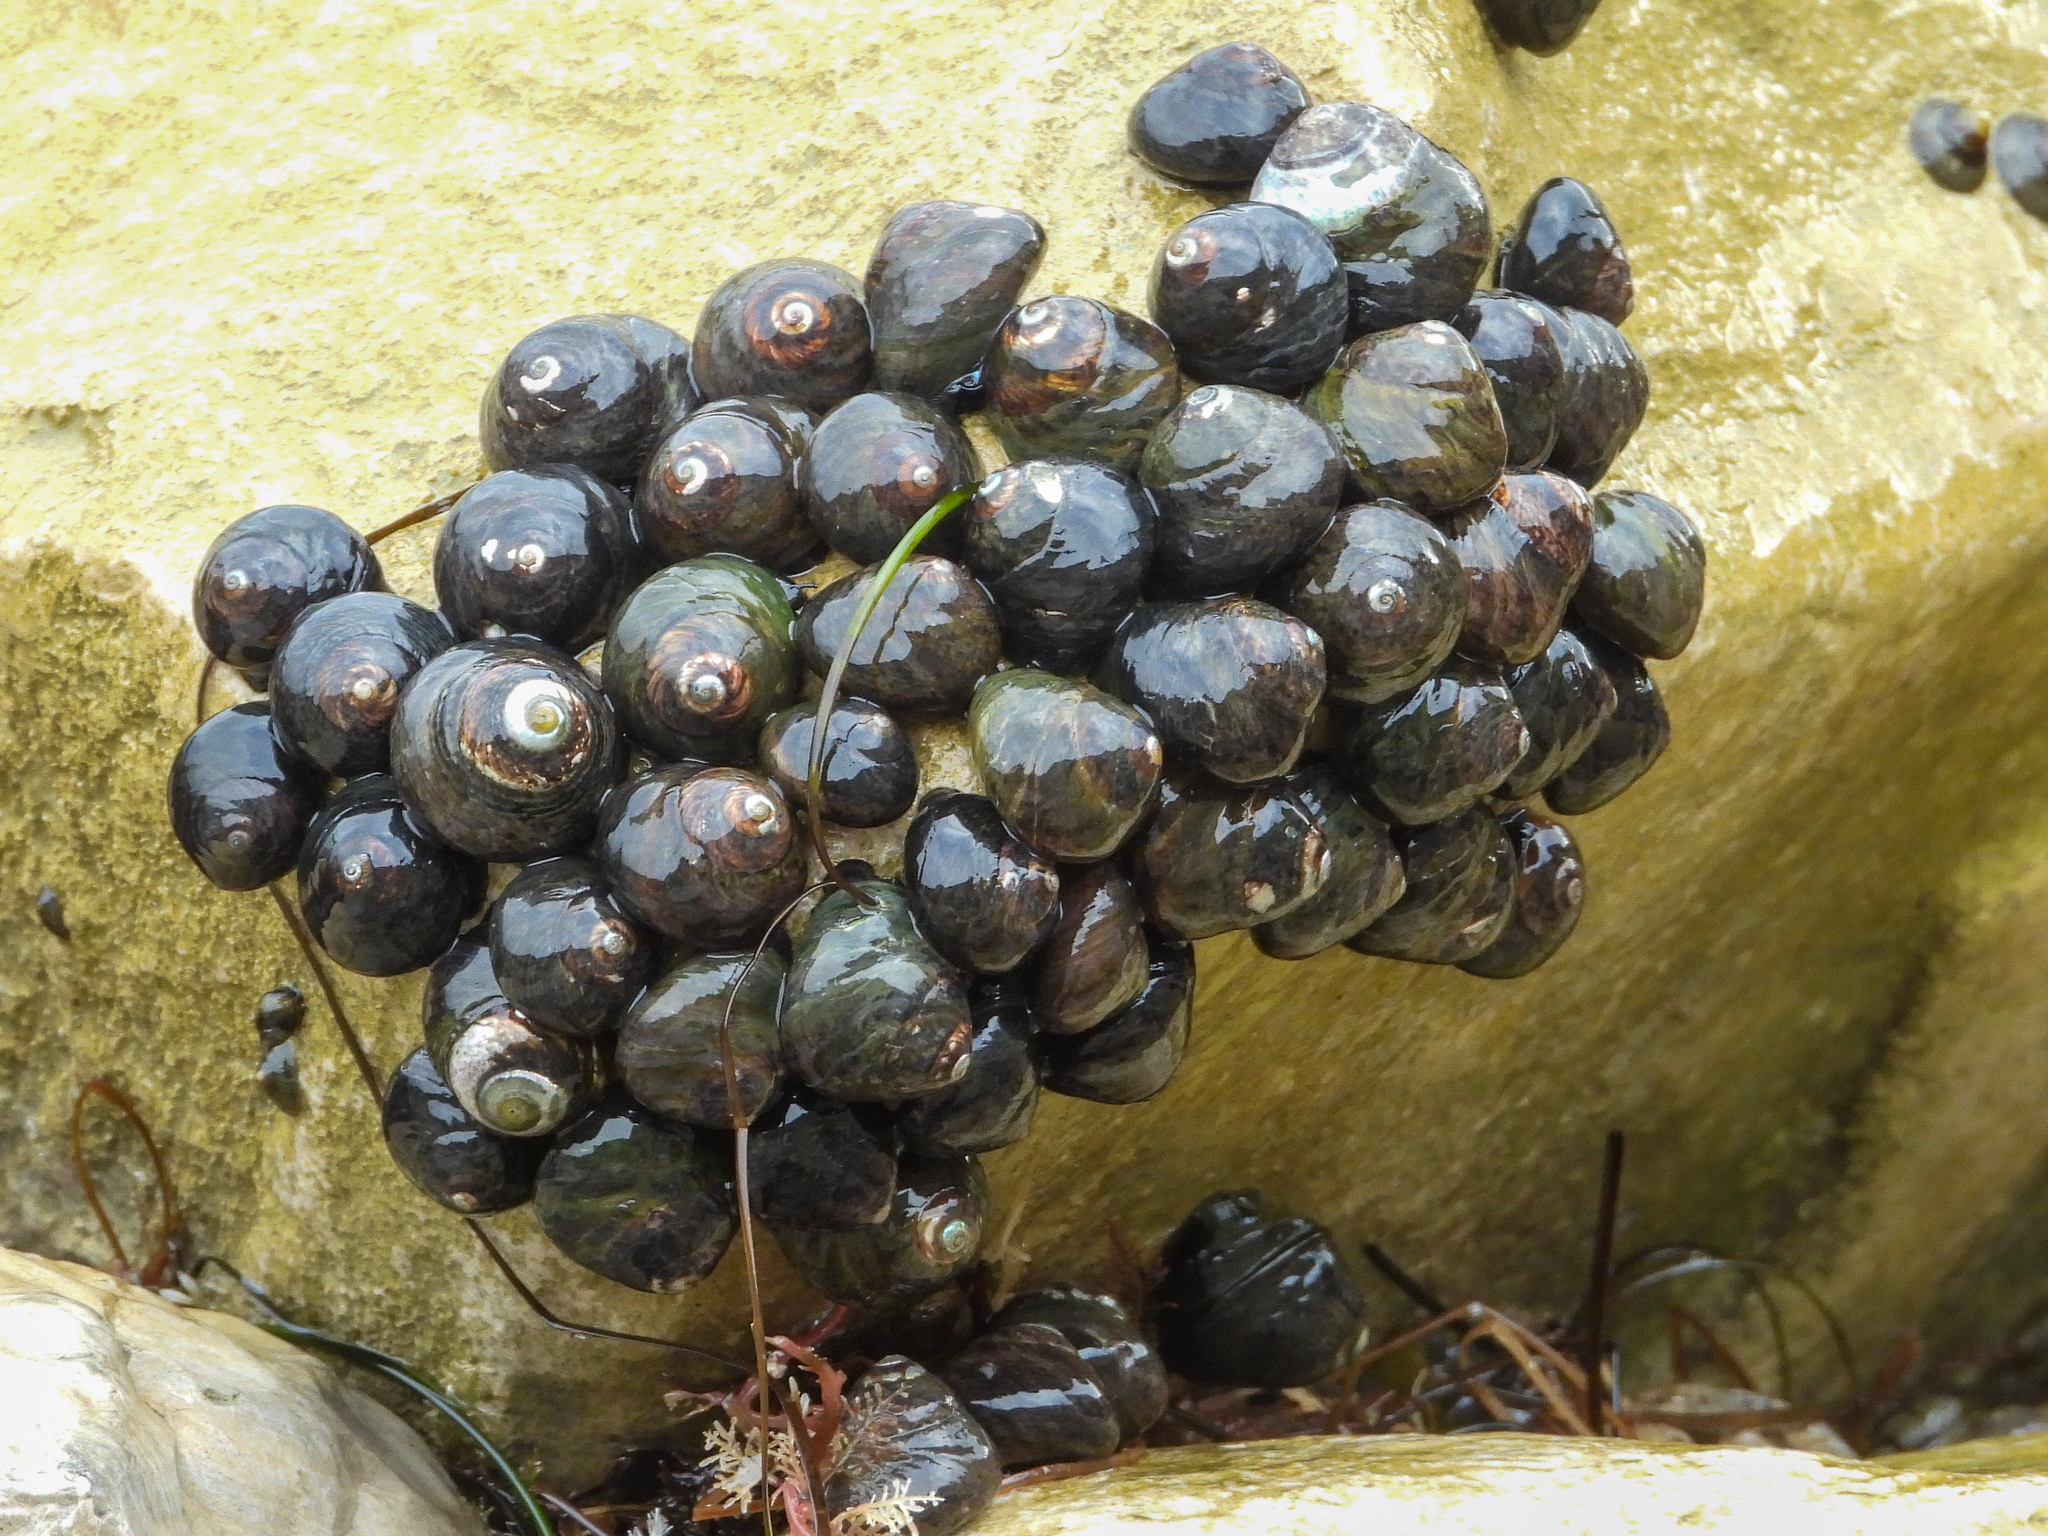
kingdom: Animalia
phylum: Mollusca
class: Gastropoda
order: Trochida
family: Tegulidae
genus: Tegula
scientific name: Tegula funebralis
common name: Black tegula
